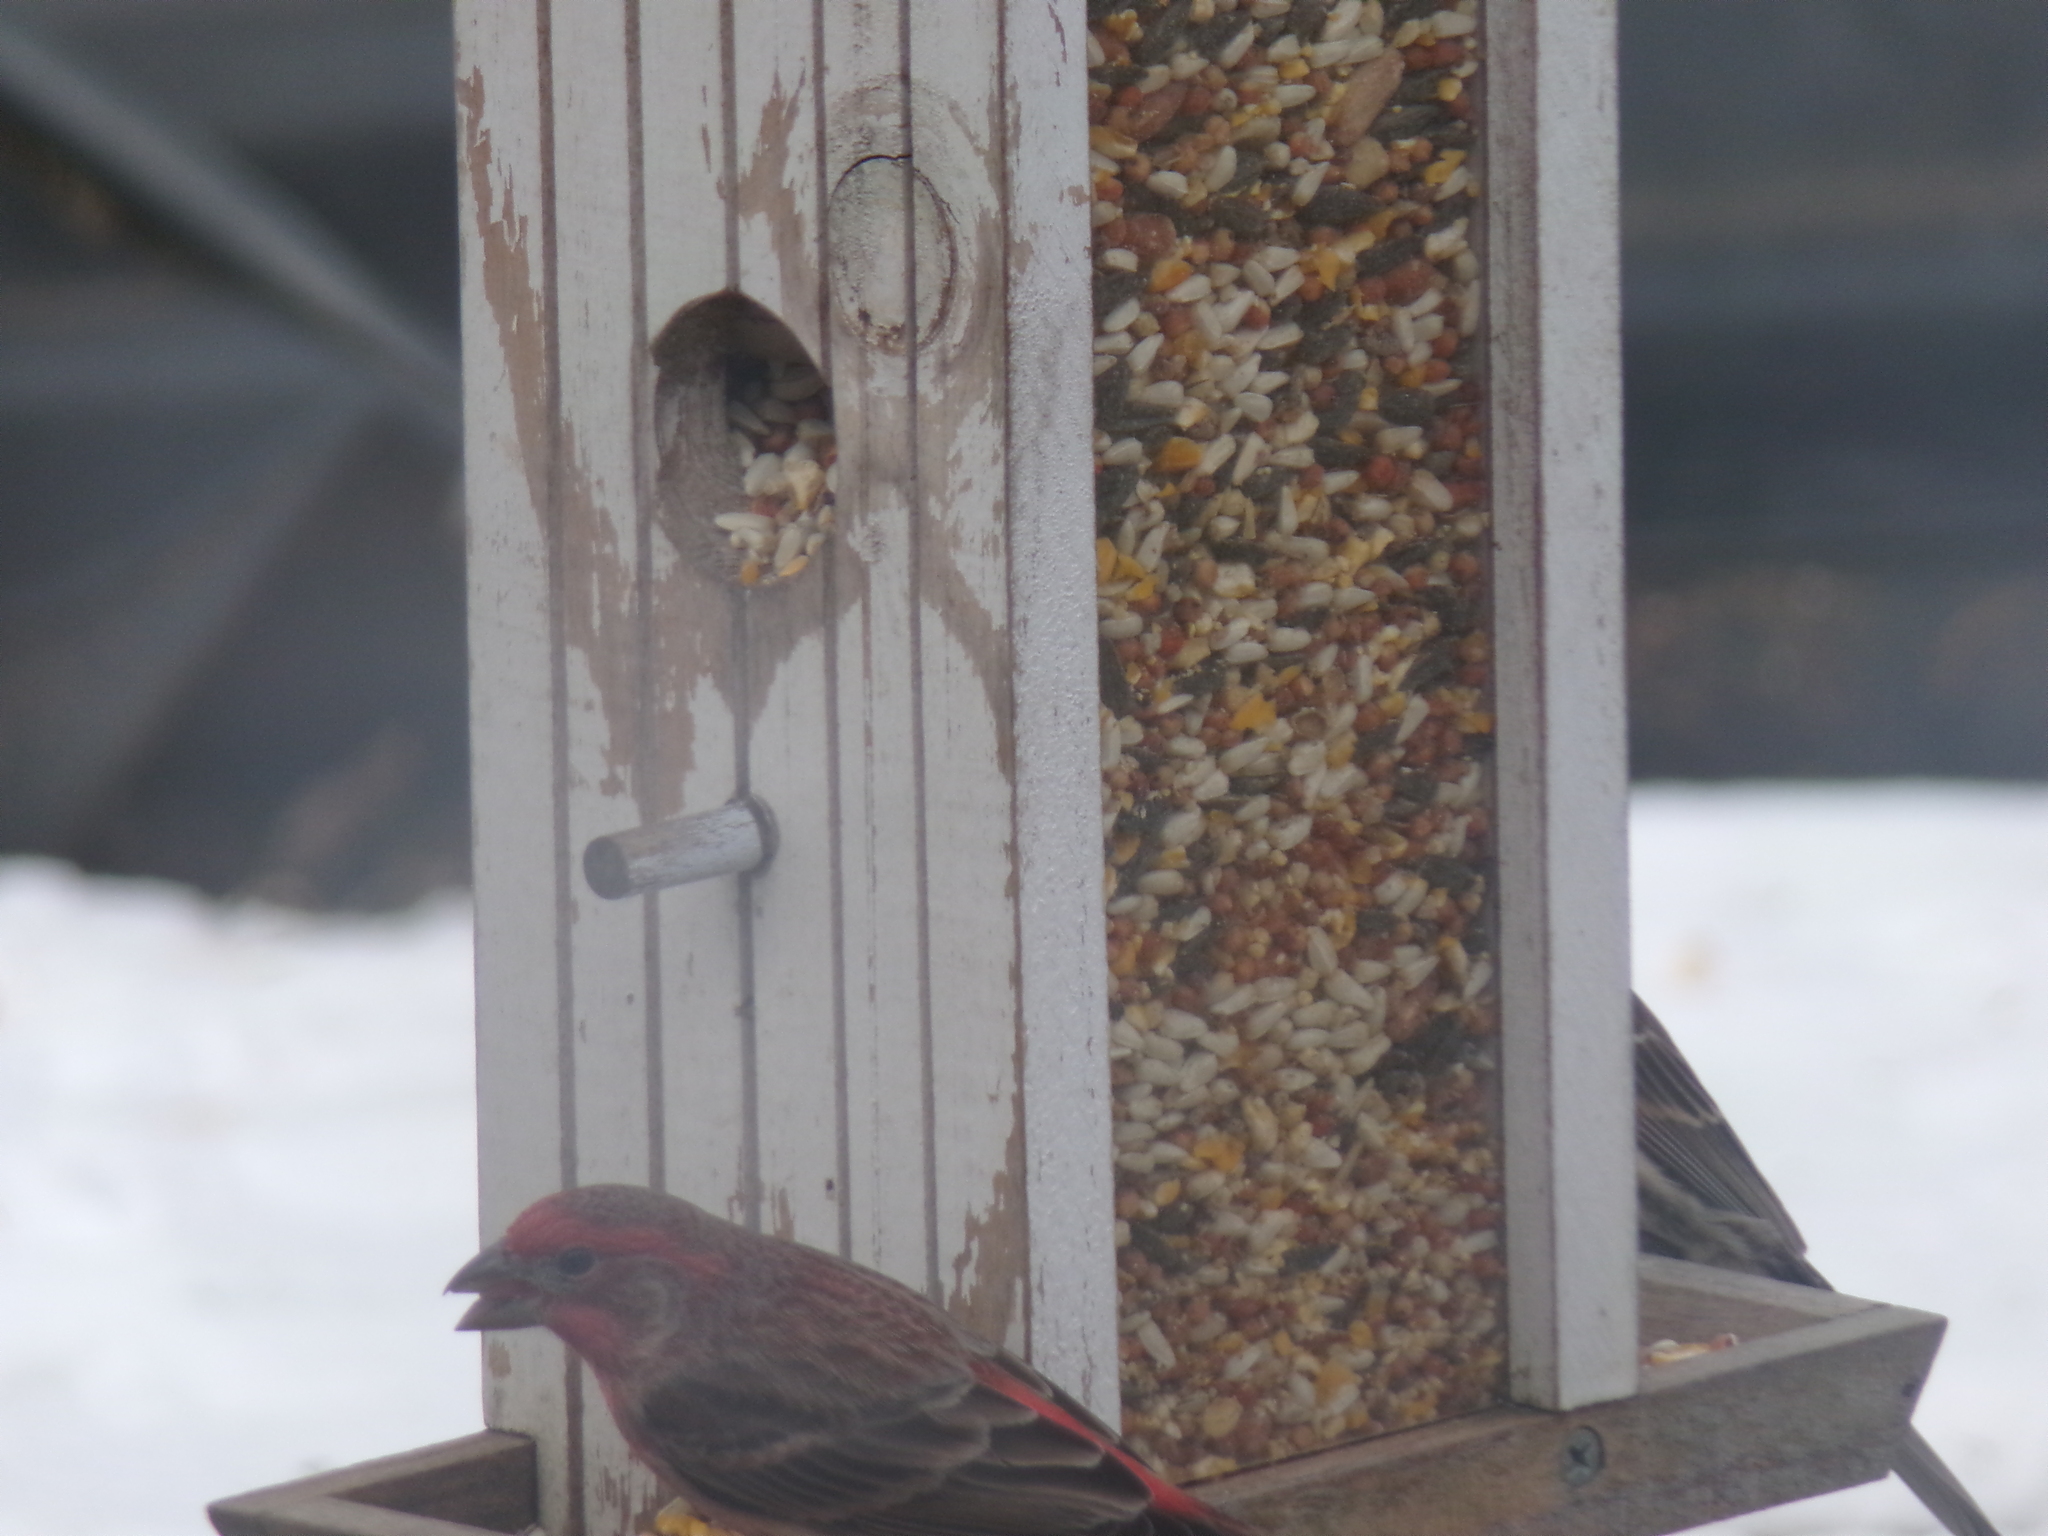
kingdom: Animalia
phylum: Chordata
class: Aves
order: Passeriformes
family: Fringillidae
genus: Haemorhous
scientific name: Haemorhous mexicanus
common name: House finch
